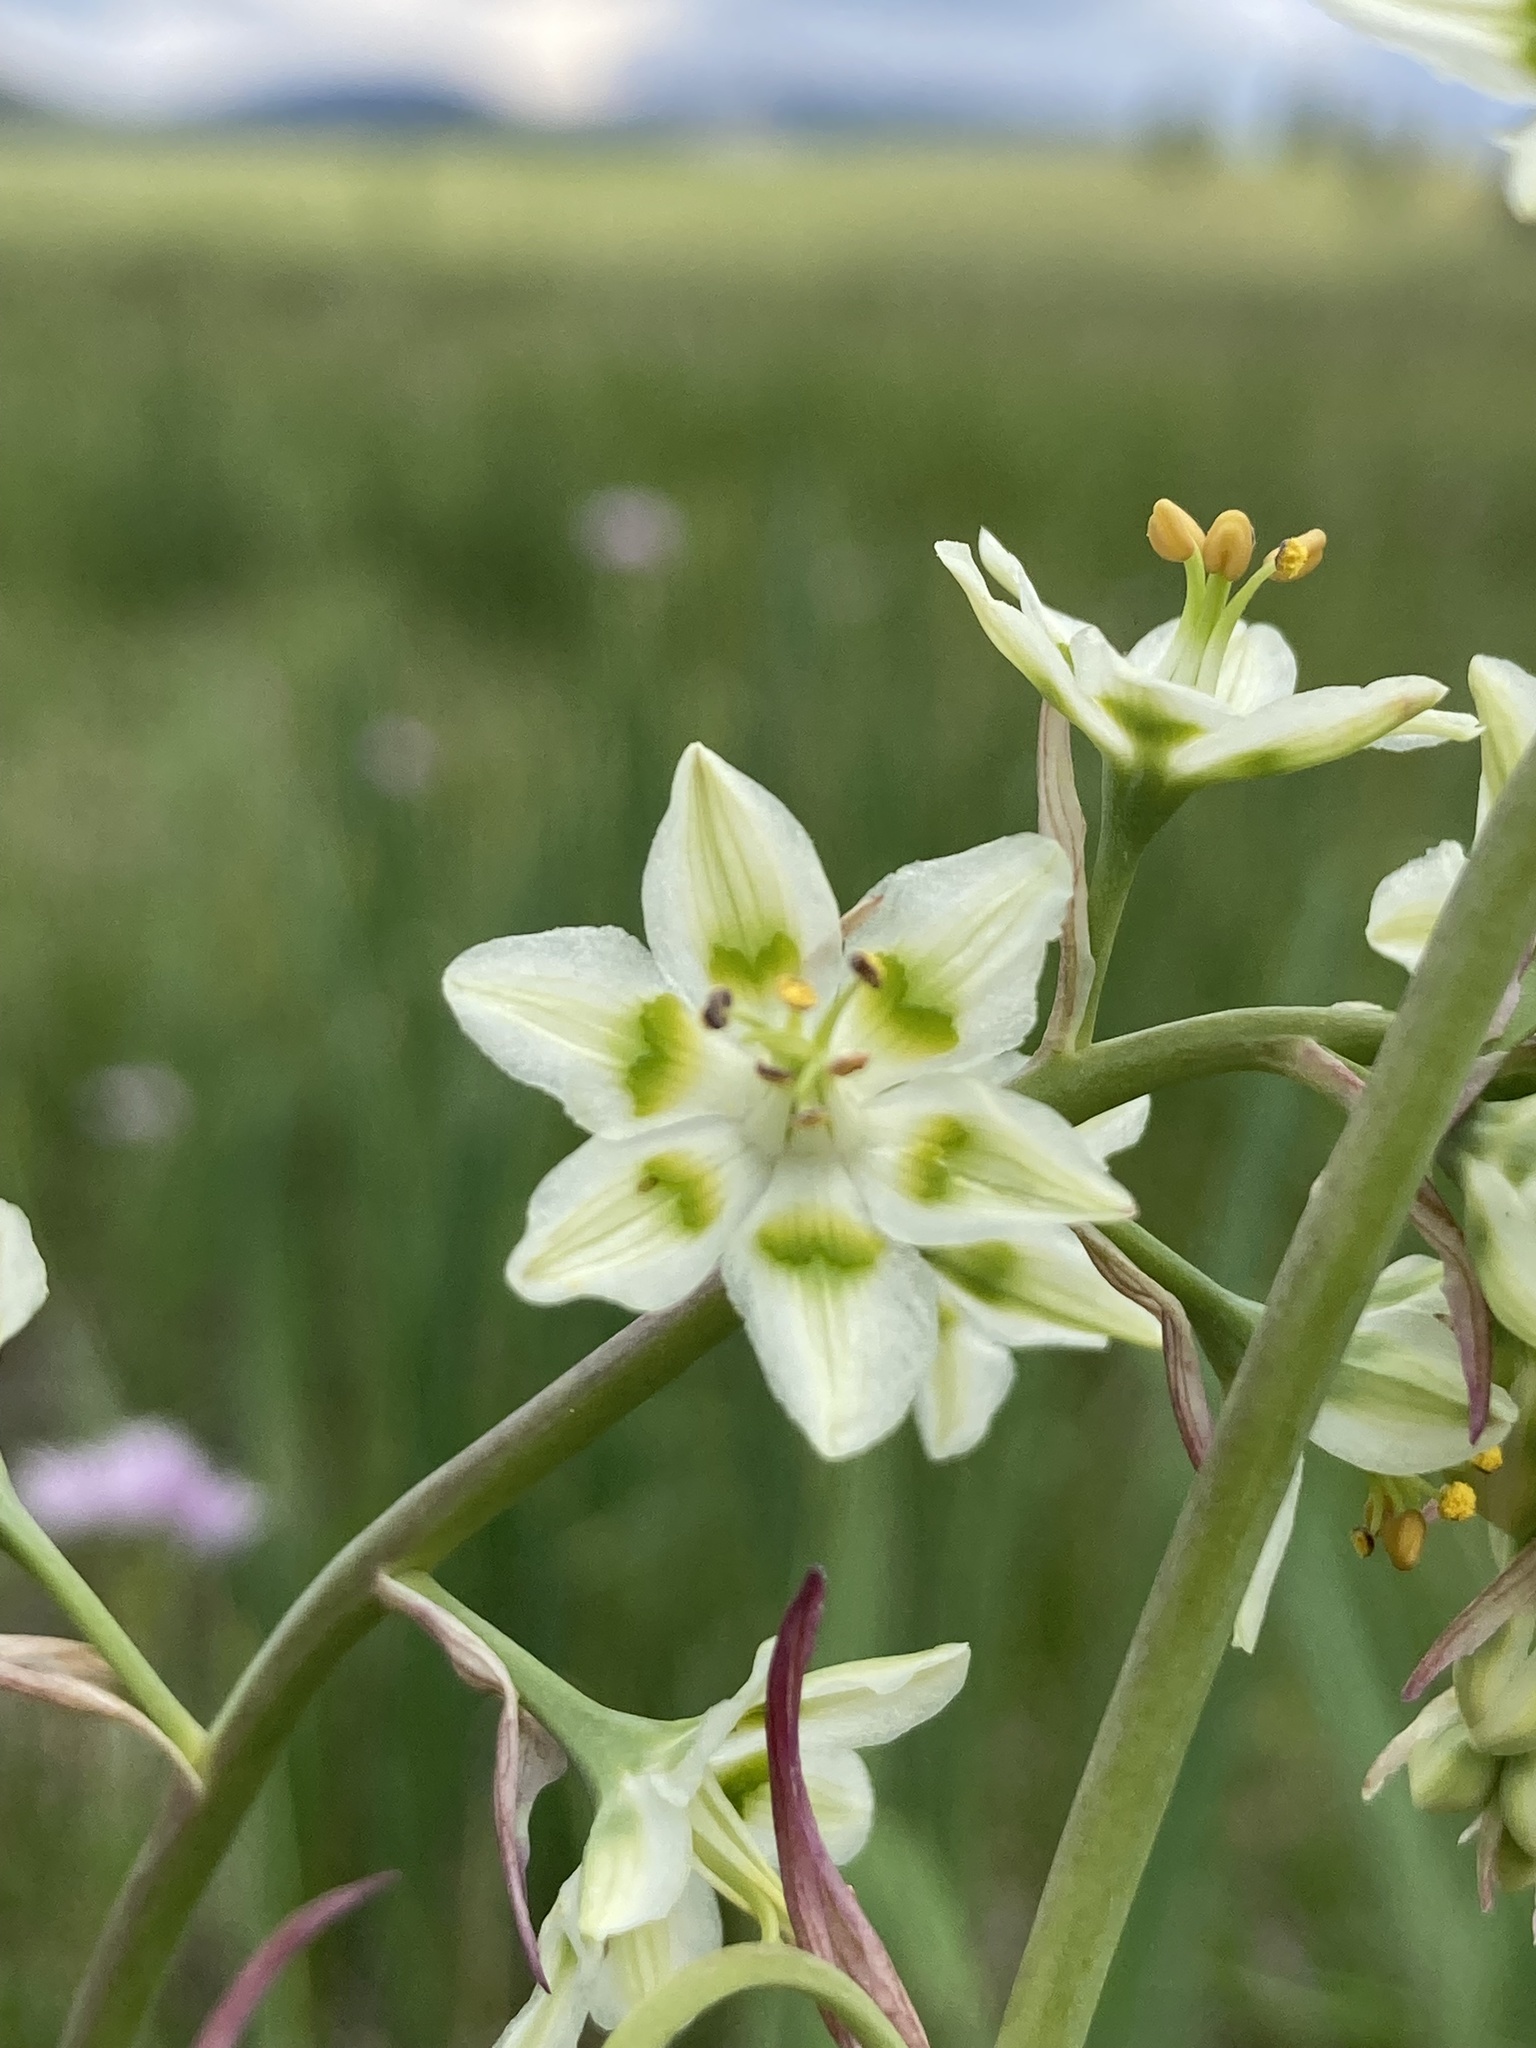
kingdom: Plantae
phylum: Tracheophyta
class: Liliopsida
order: Liliales
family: Melanthiaceae
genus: Anticlea
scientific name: Anticlea elegans
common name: Mountain death camas
